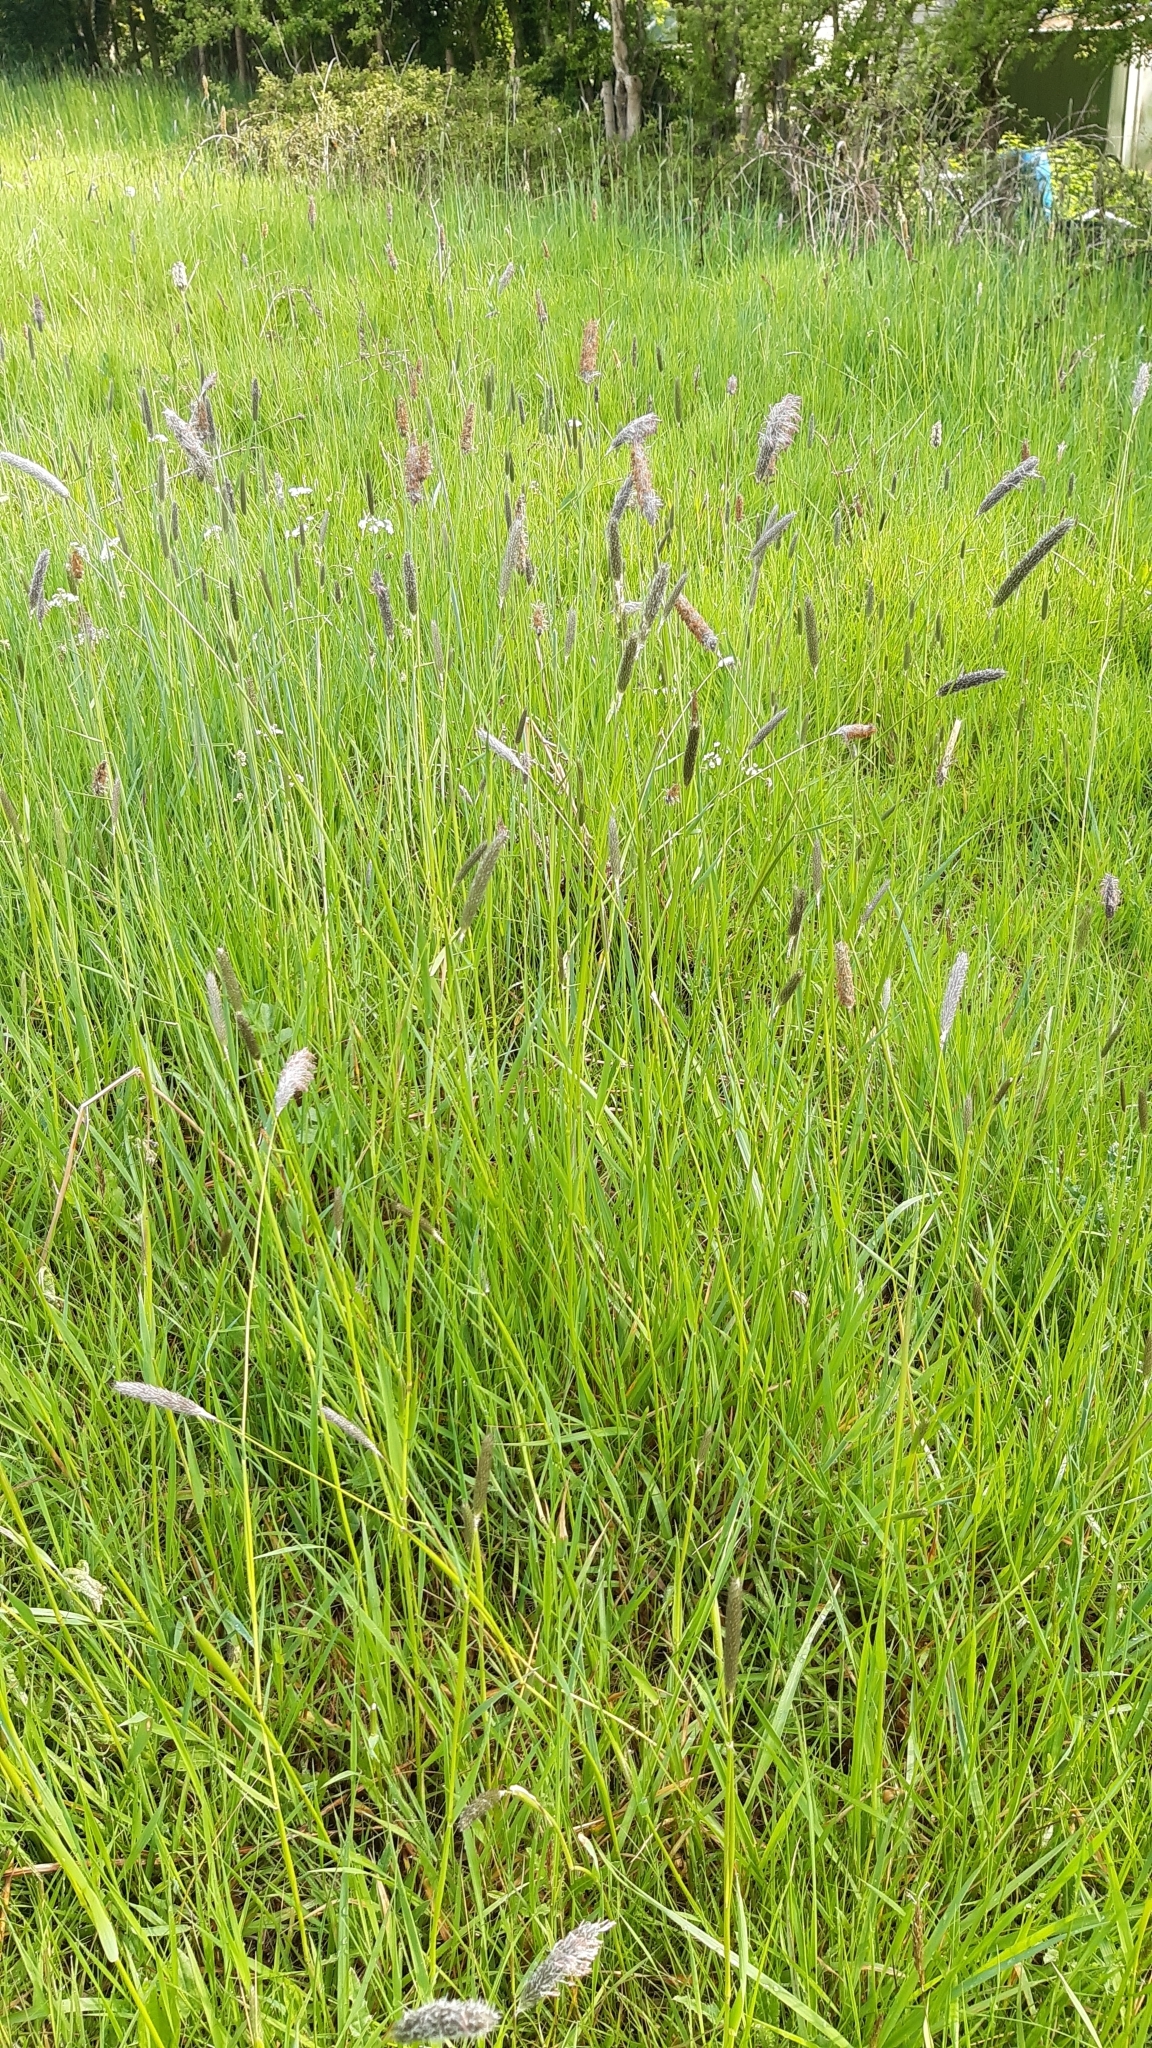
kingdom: Plantae
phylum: Tracheophyta
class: Liliopsida
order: Poales
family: Poaceae
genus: Alopecurus
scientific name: Alopecurus pratensis
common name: Meadow foxtail
